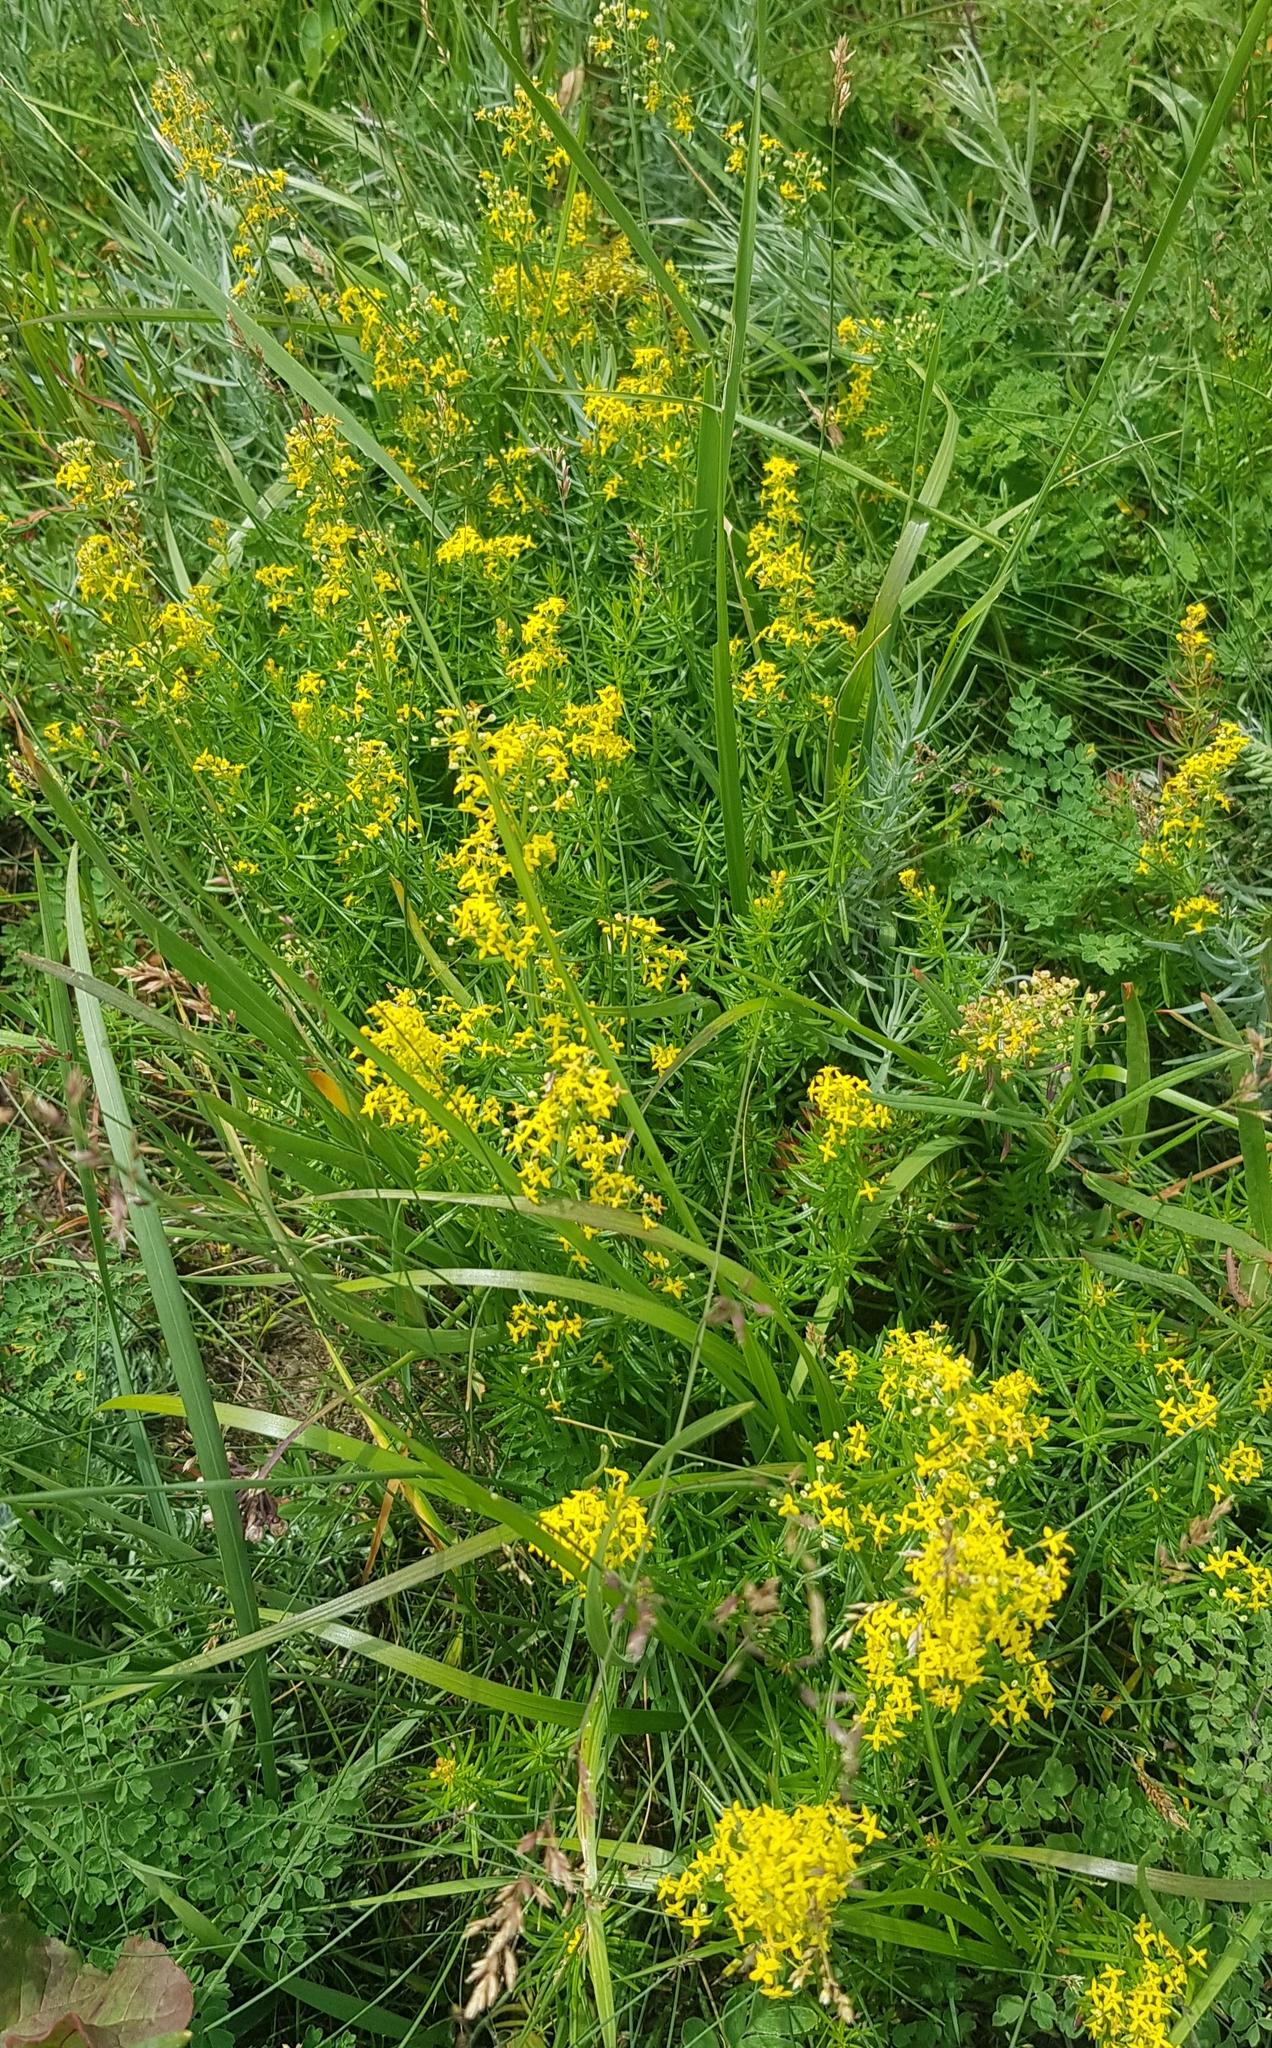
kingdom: Plantae
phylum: Tracheophyta
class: Magnoliopsida
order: Gentianales
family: Rubiaceae
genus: Galium
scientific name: Galium verum
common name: Lady's bedstraw
